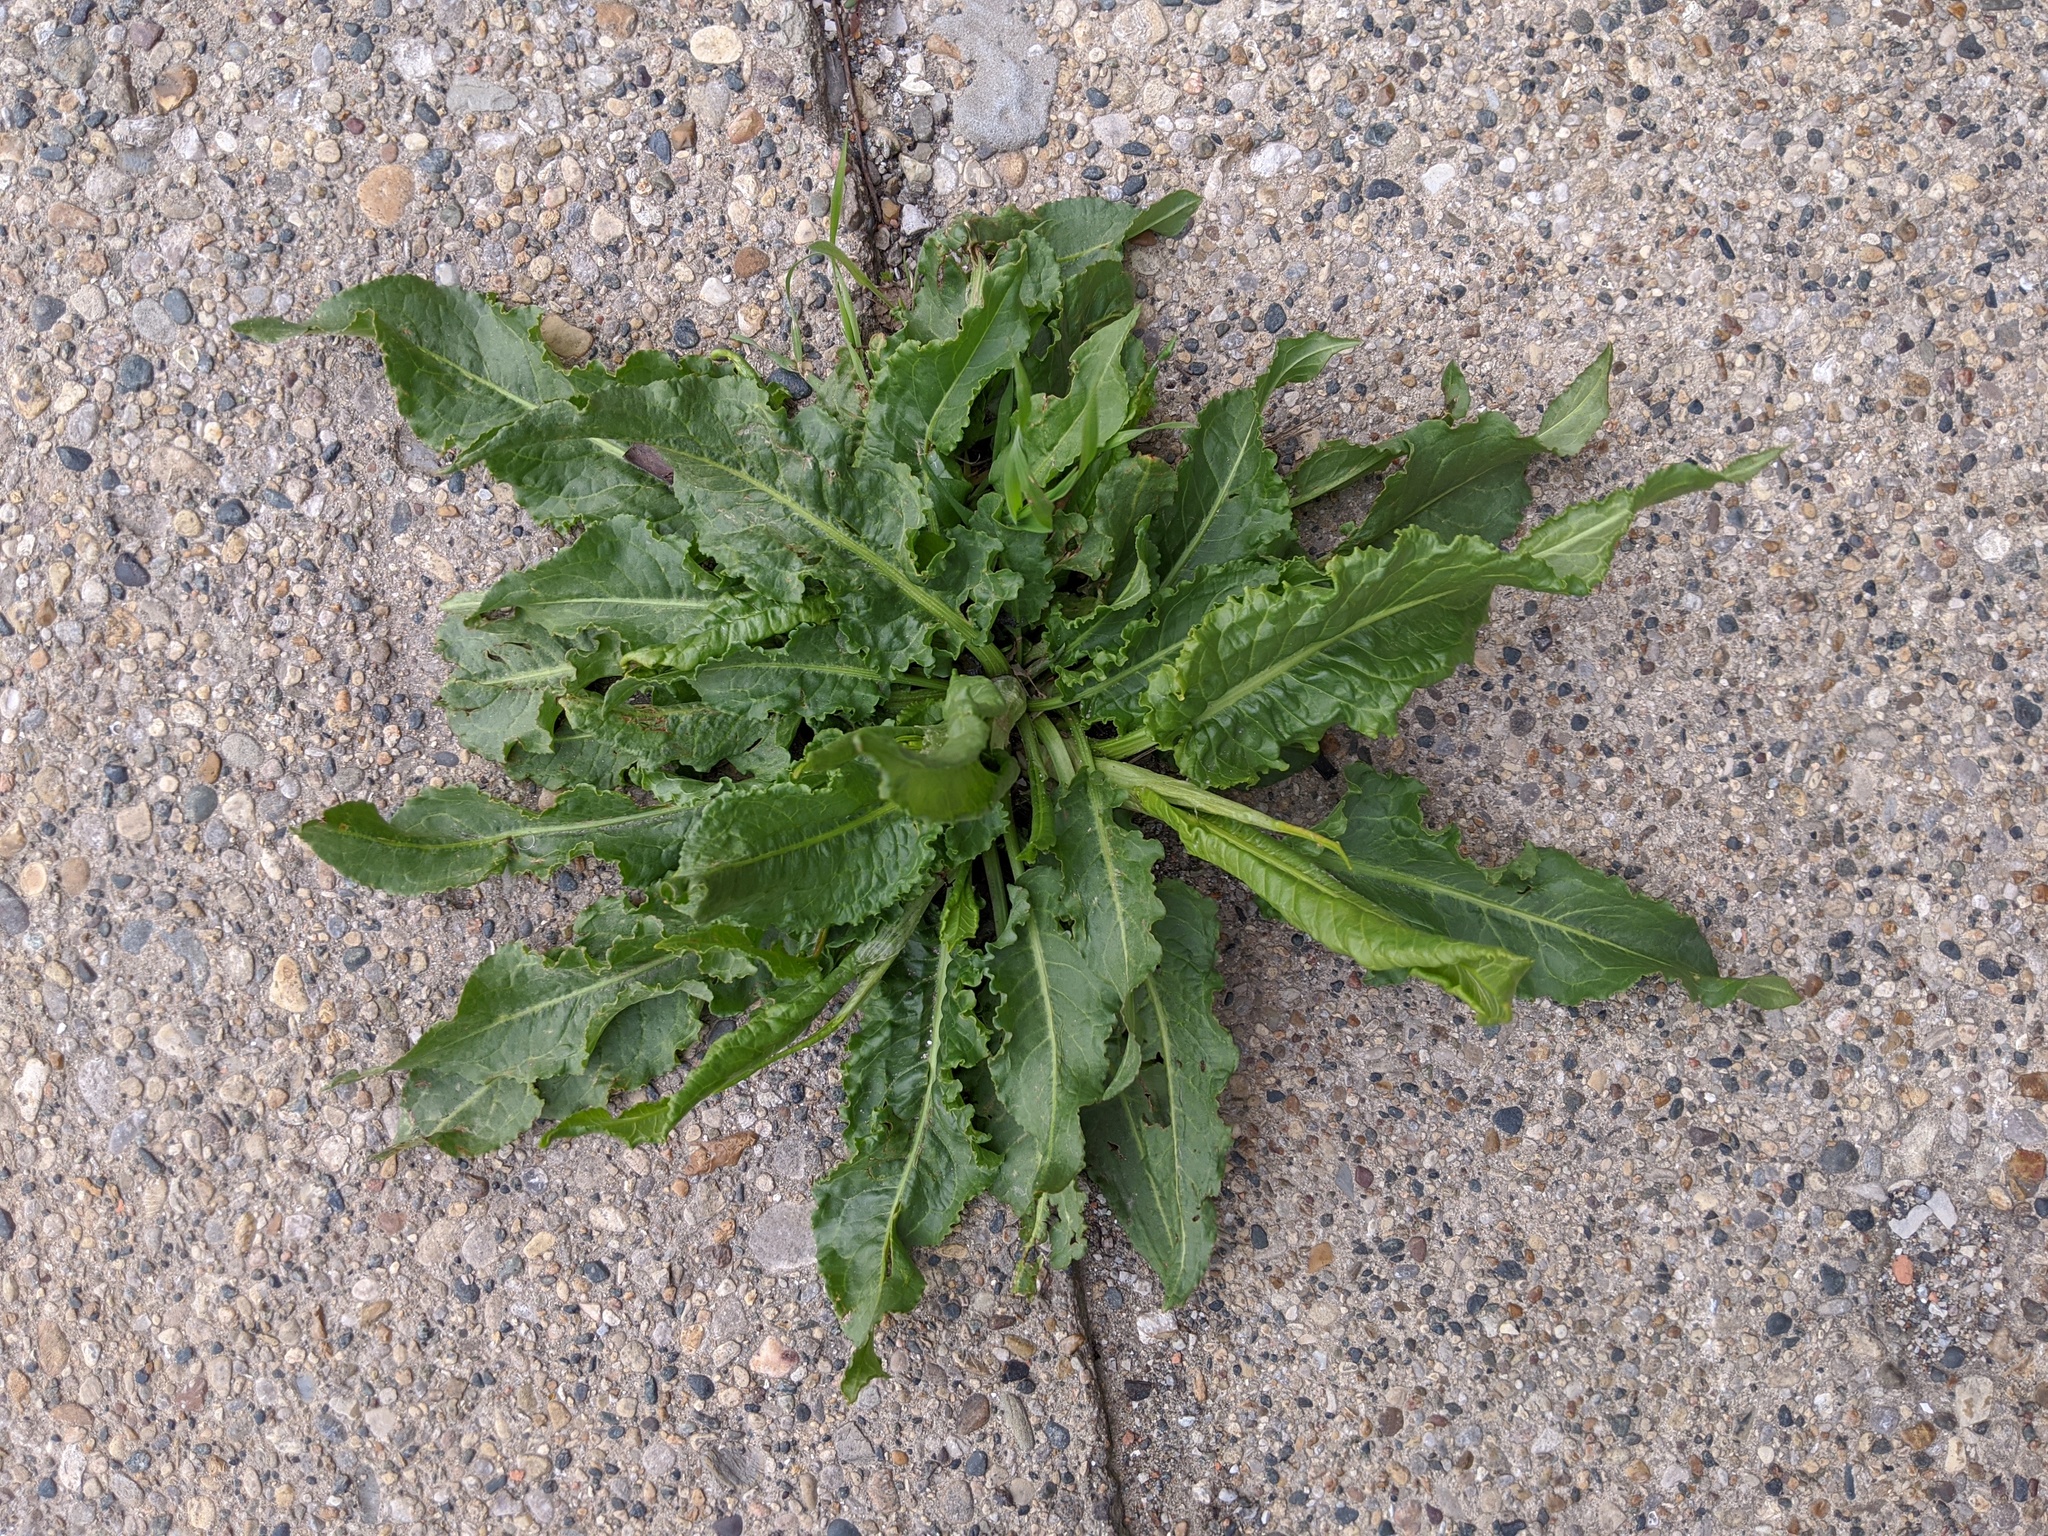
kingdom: Plantae
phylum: Tracheophyta
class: Magnoliopsida
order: Caryophyllales
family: Polygonaceae
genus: Rumex
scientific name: Rumex crispus
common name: Curled dock
